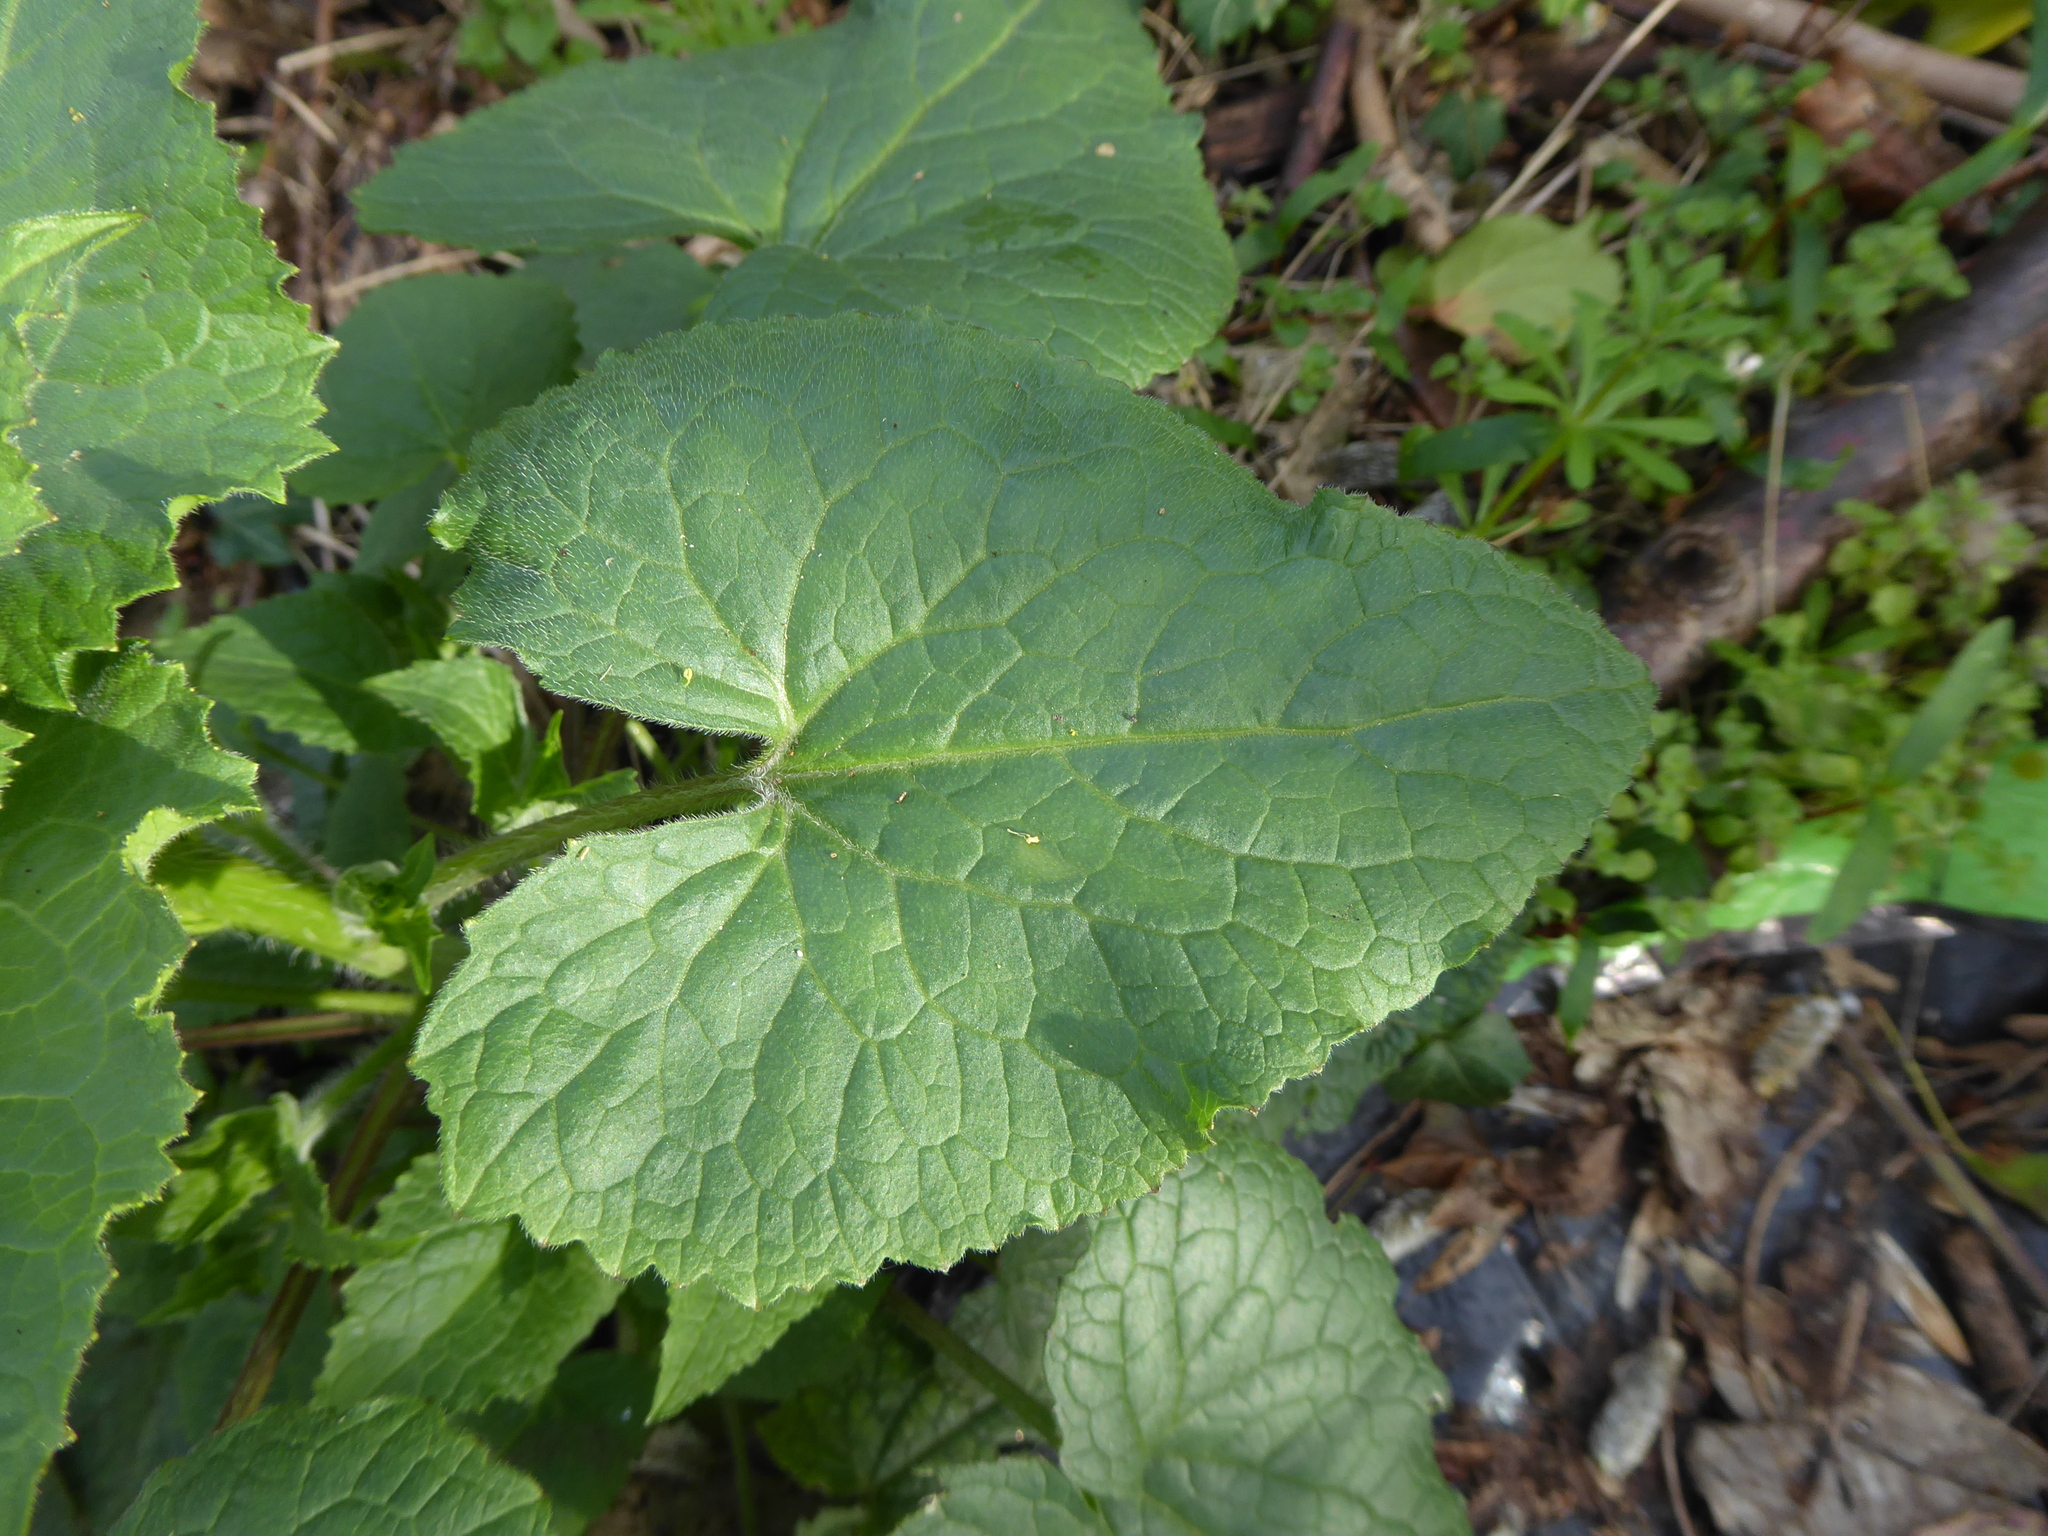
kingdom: Plantae
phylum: Tracheophyta
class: Magnoliopsida
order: Brassicales
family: Brassicaceae
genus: Lunaria
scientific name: Lunaria annua
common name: Honesty
